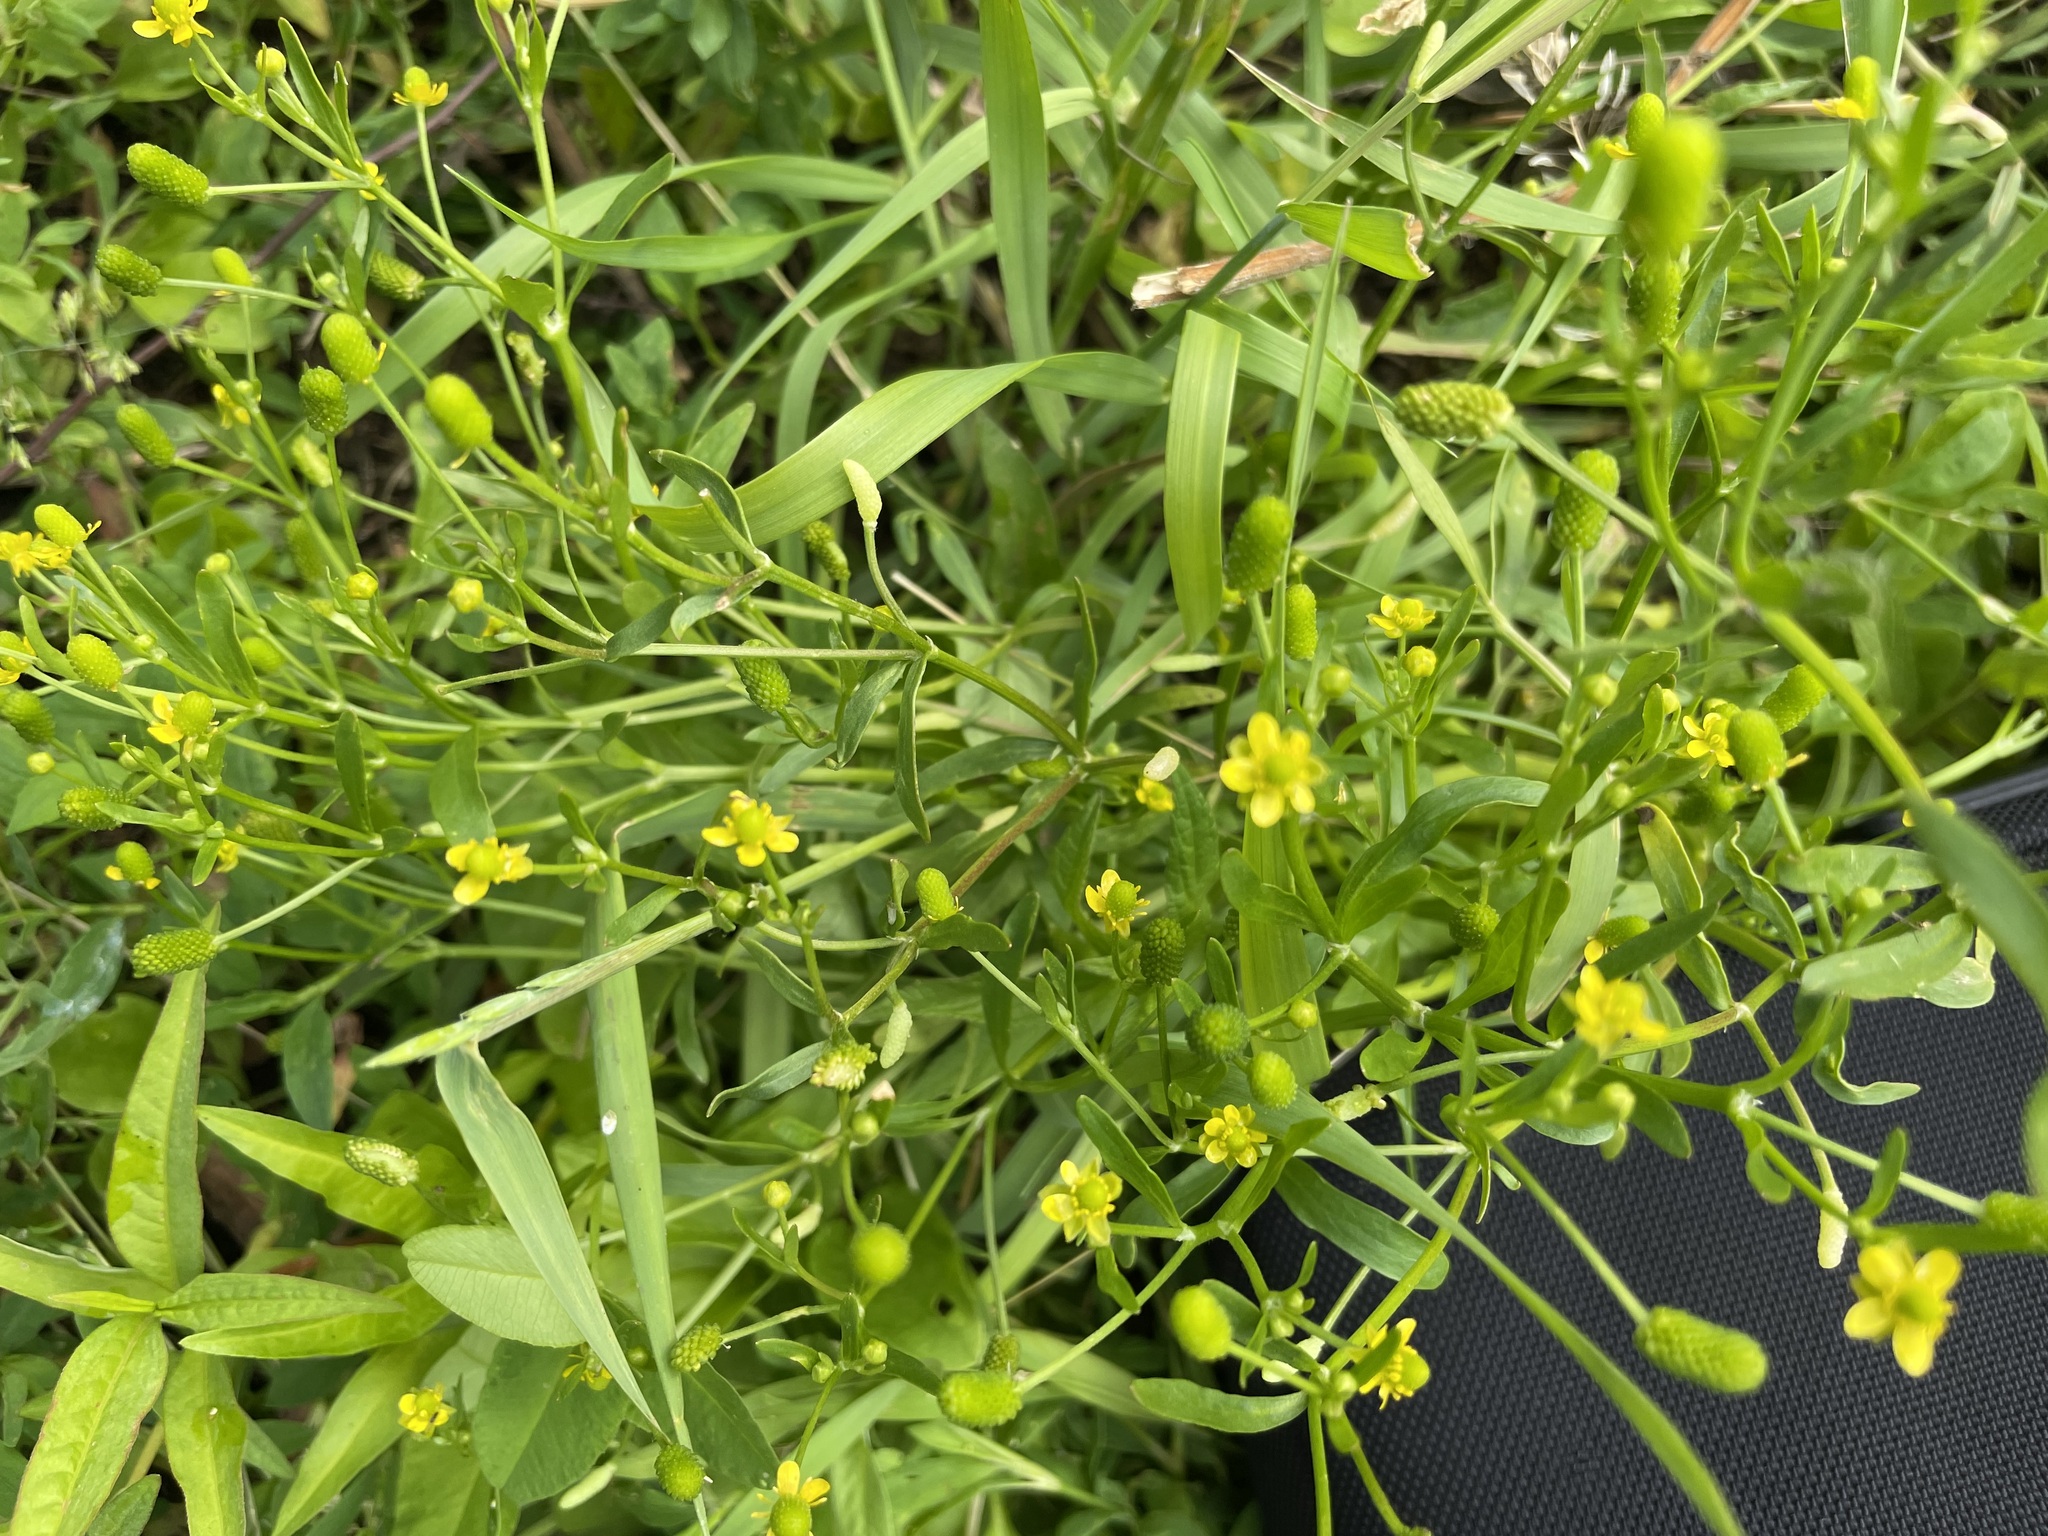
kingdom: Plantae
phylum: Tracheophyta
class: Magnoliopsida
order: Ranunculales
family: Ranunculaceae
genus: Ranunculus
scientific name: Ranunculus sceleratus
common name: Celery-leaved buttercup
